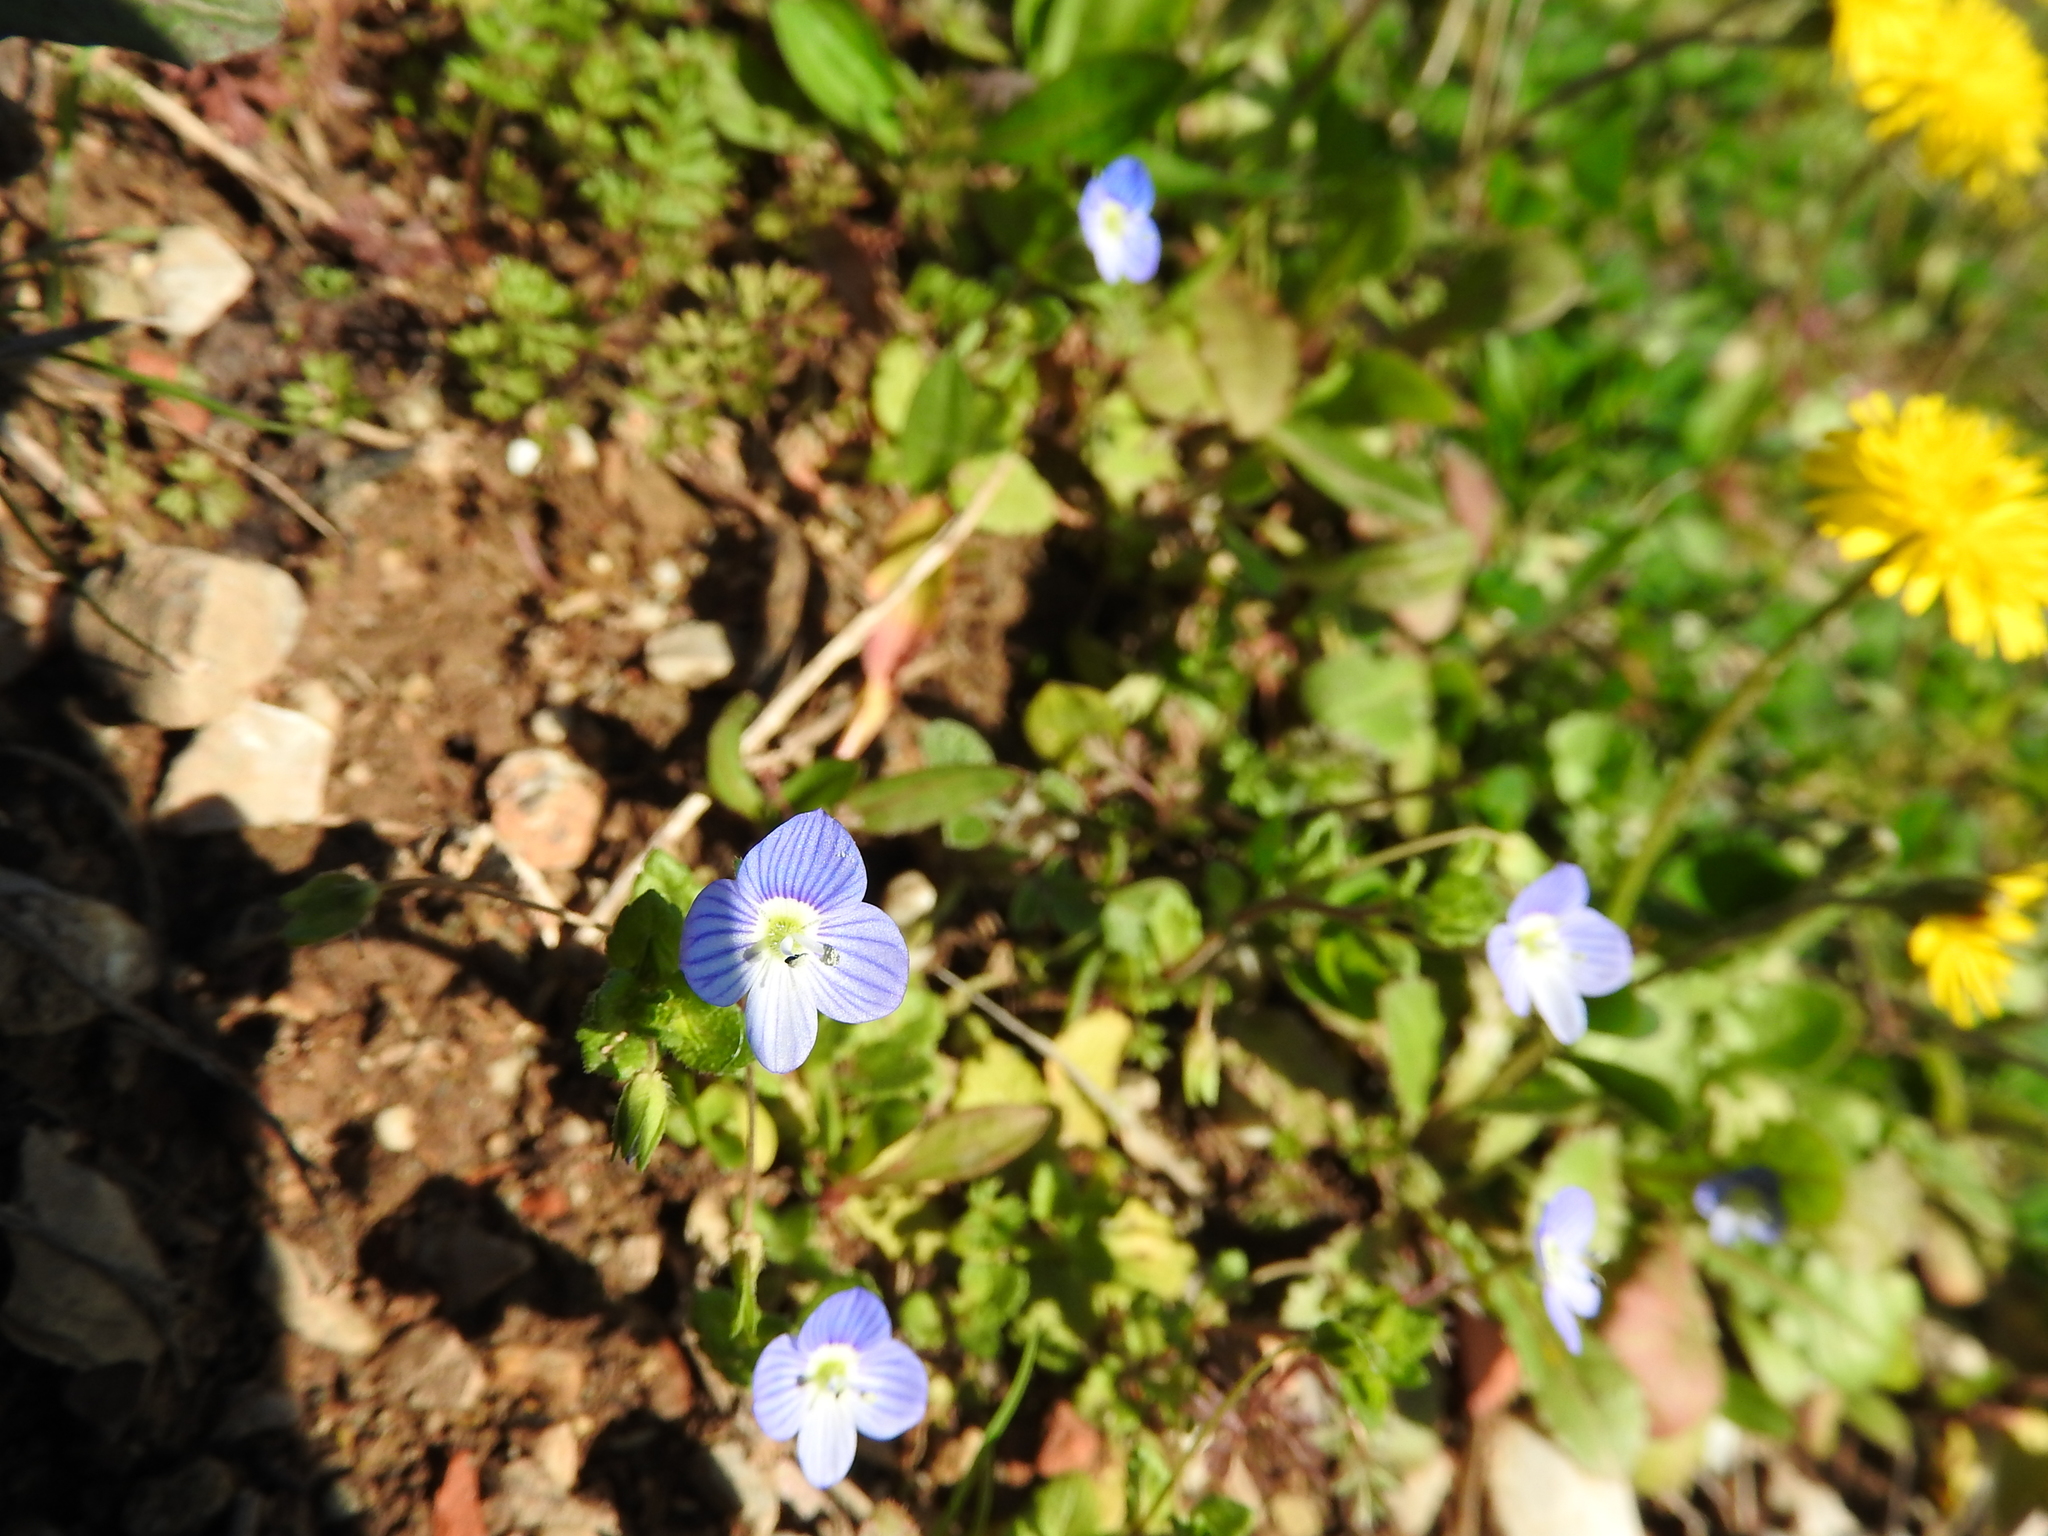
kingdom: Plantae
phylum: Tracheophyta
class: Magnoliopsida
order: Lamiales
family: Plantaginaceae
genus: Veronica
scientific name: Veronica persica
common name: Common field-speedwell
